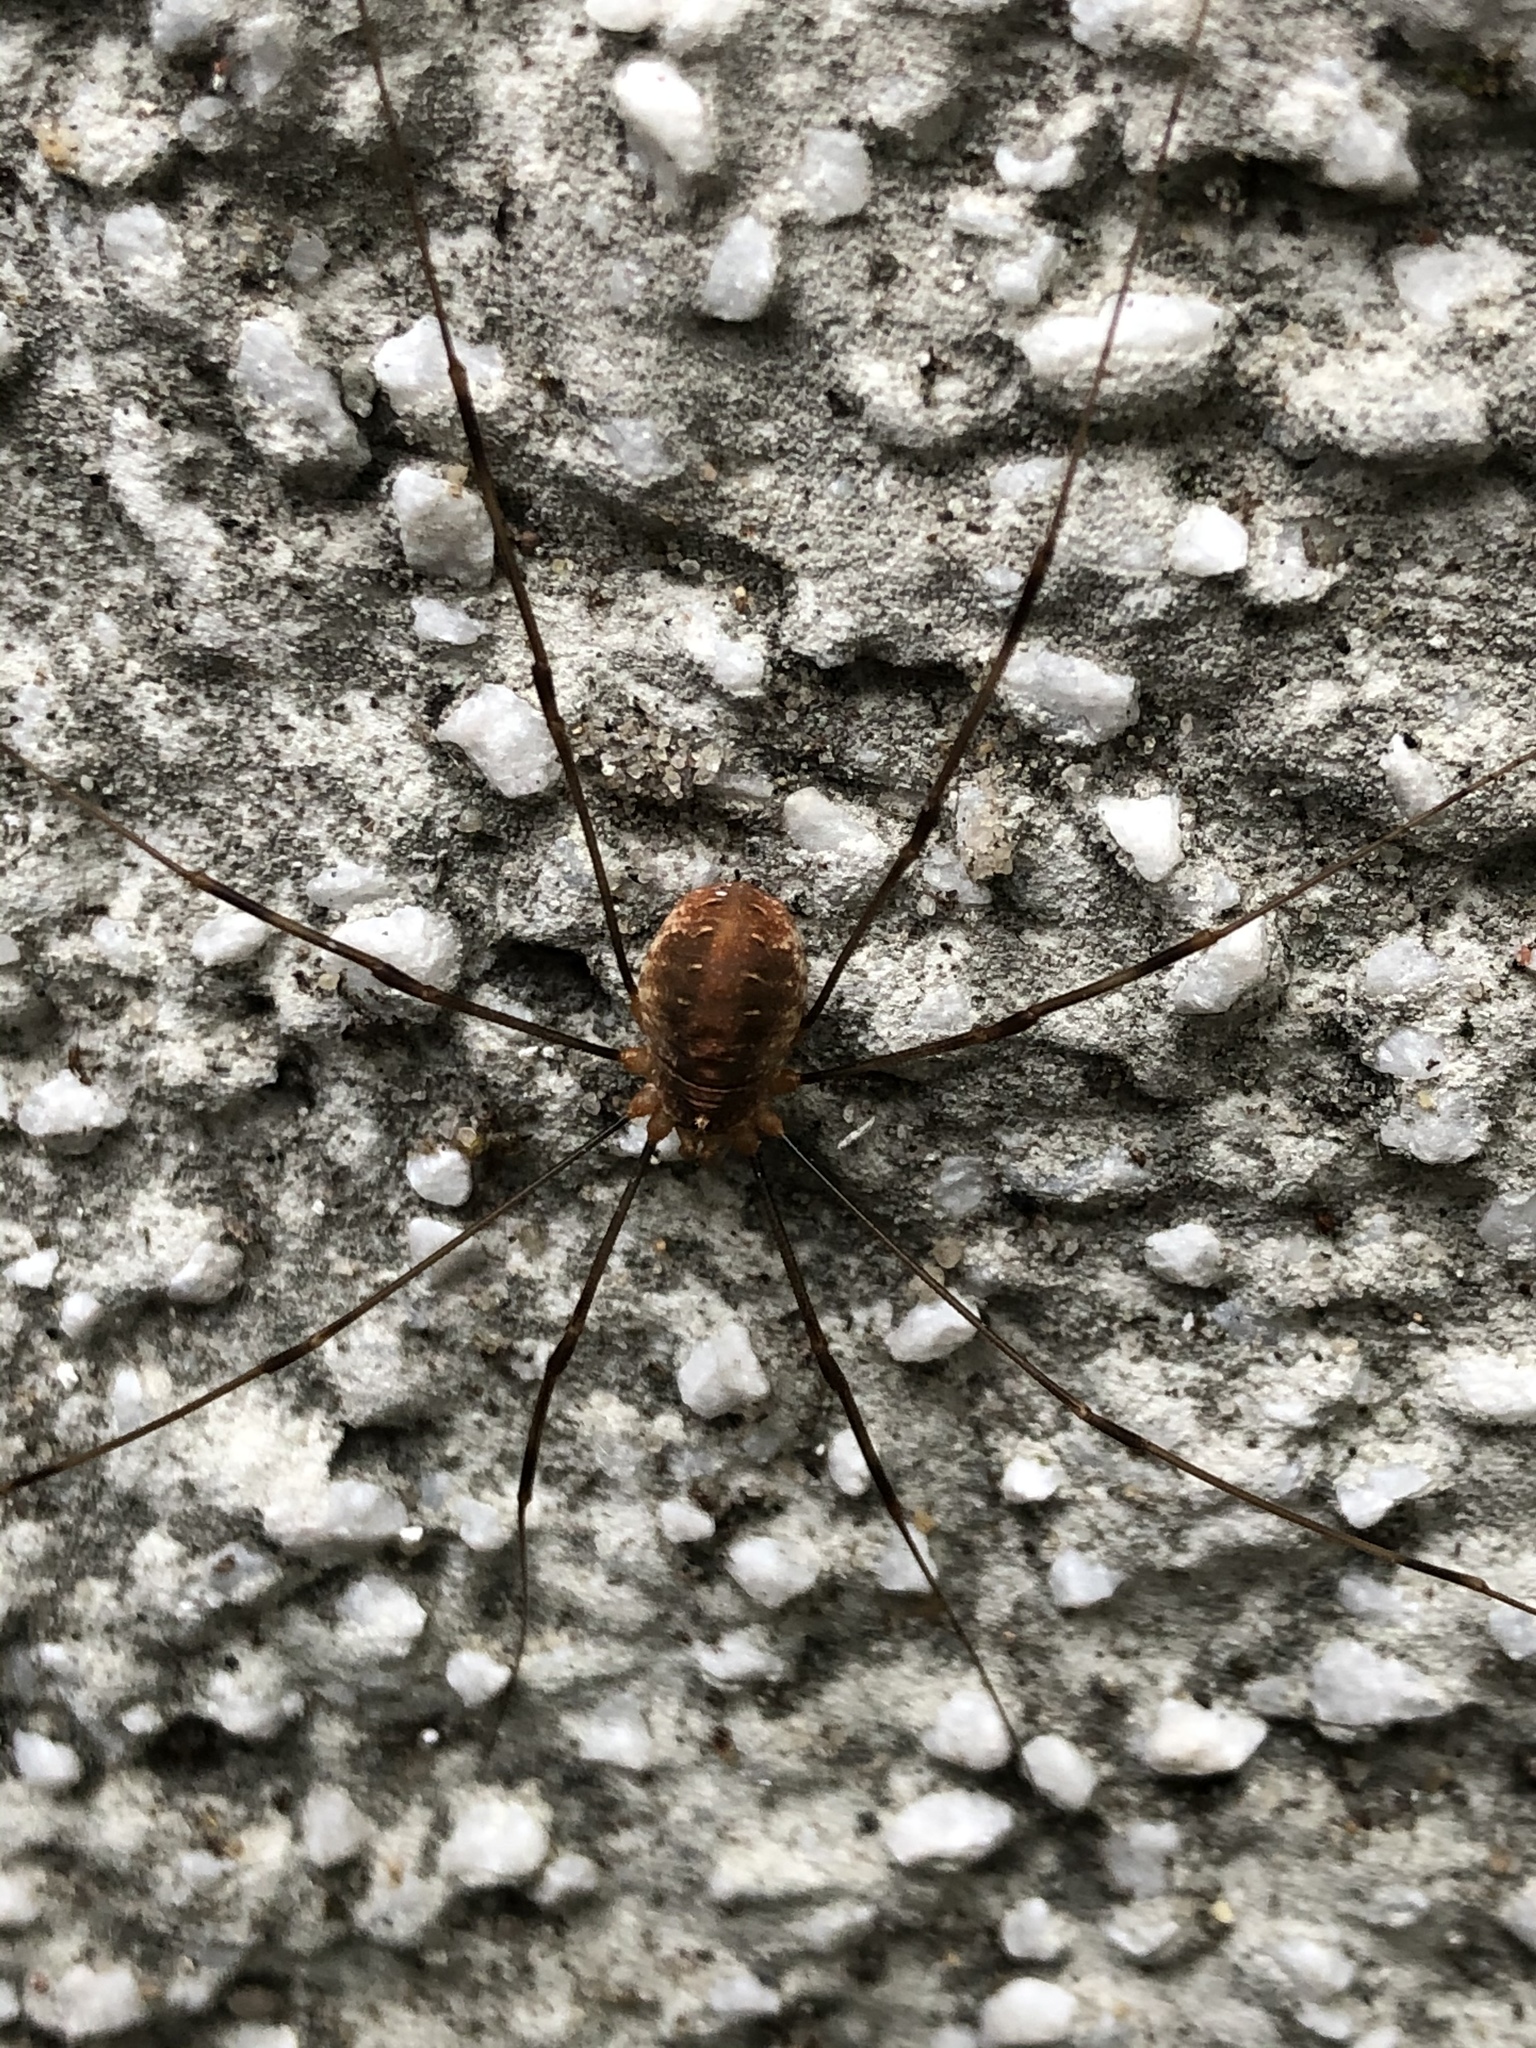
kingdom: Animalia
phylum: Arthropoda
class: Arachnida
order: Opiliones
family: Phalangiidae
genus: Opilio
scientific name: Opilio canestrinii
